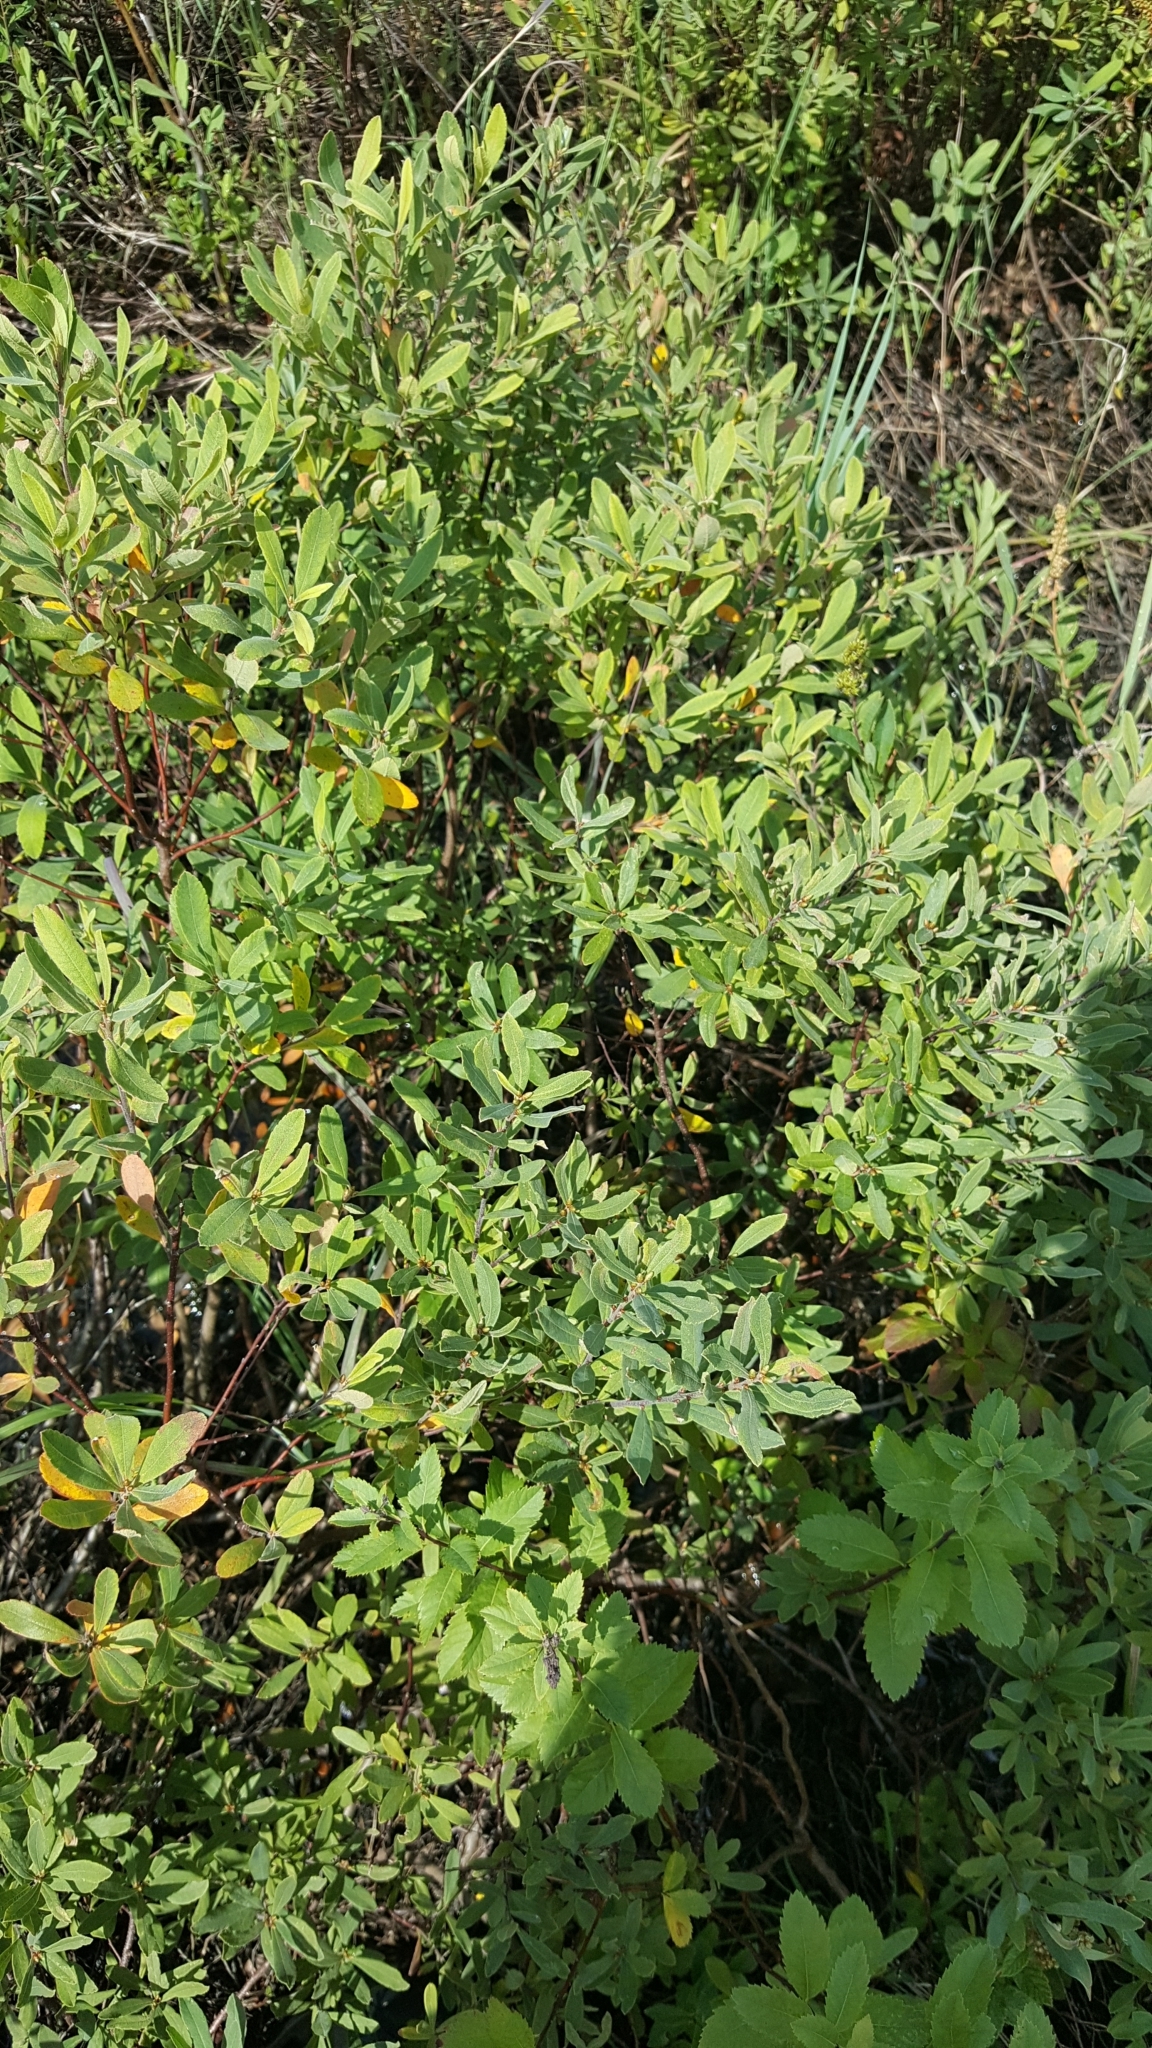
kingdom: Plantae
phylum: Tracheophyta
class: Magnoliopsida
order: Fagales
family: Myricaceae
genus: Myrica
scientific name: Myrica gale
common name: Sweet gale
